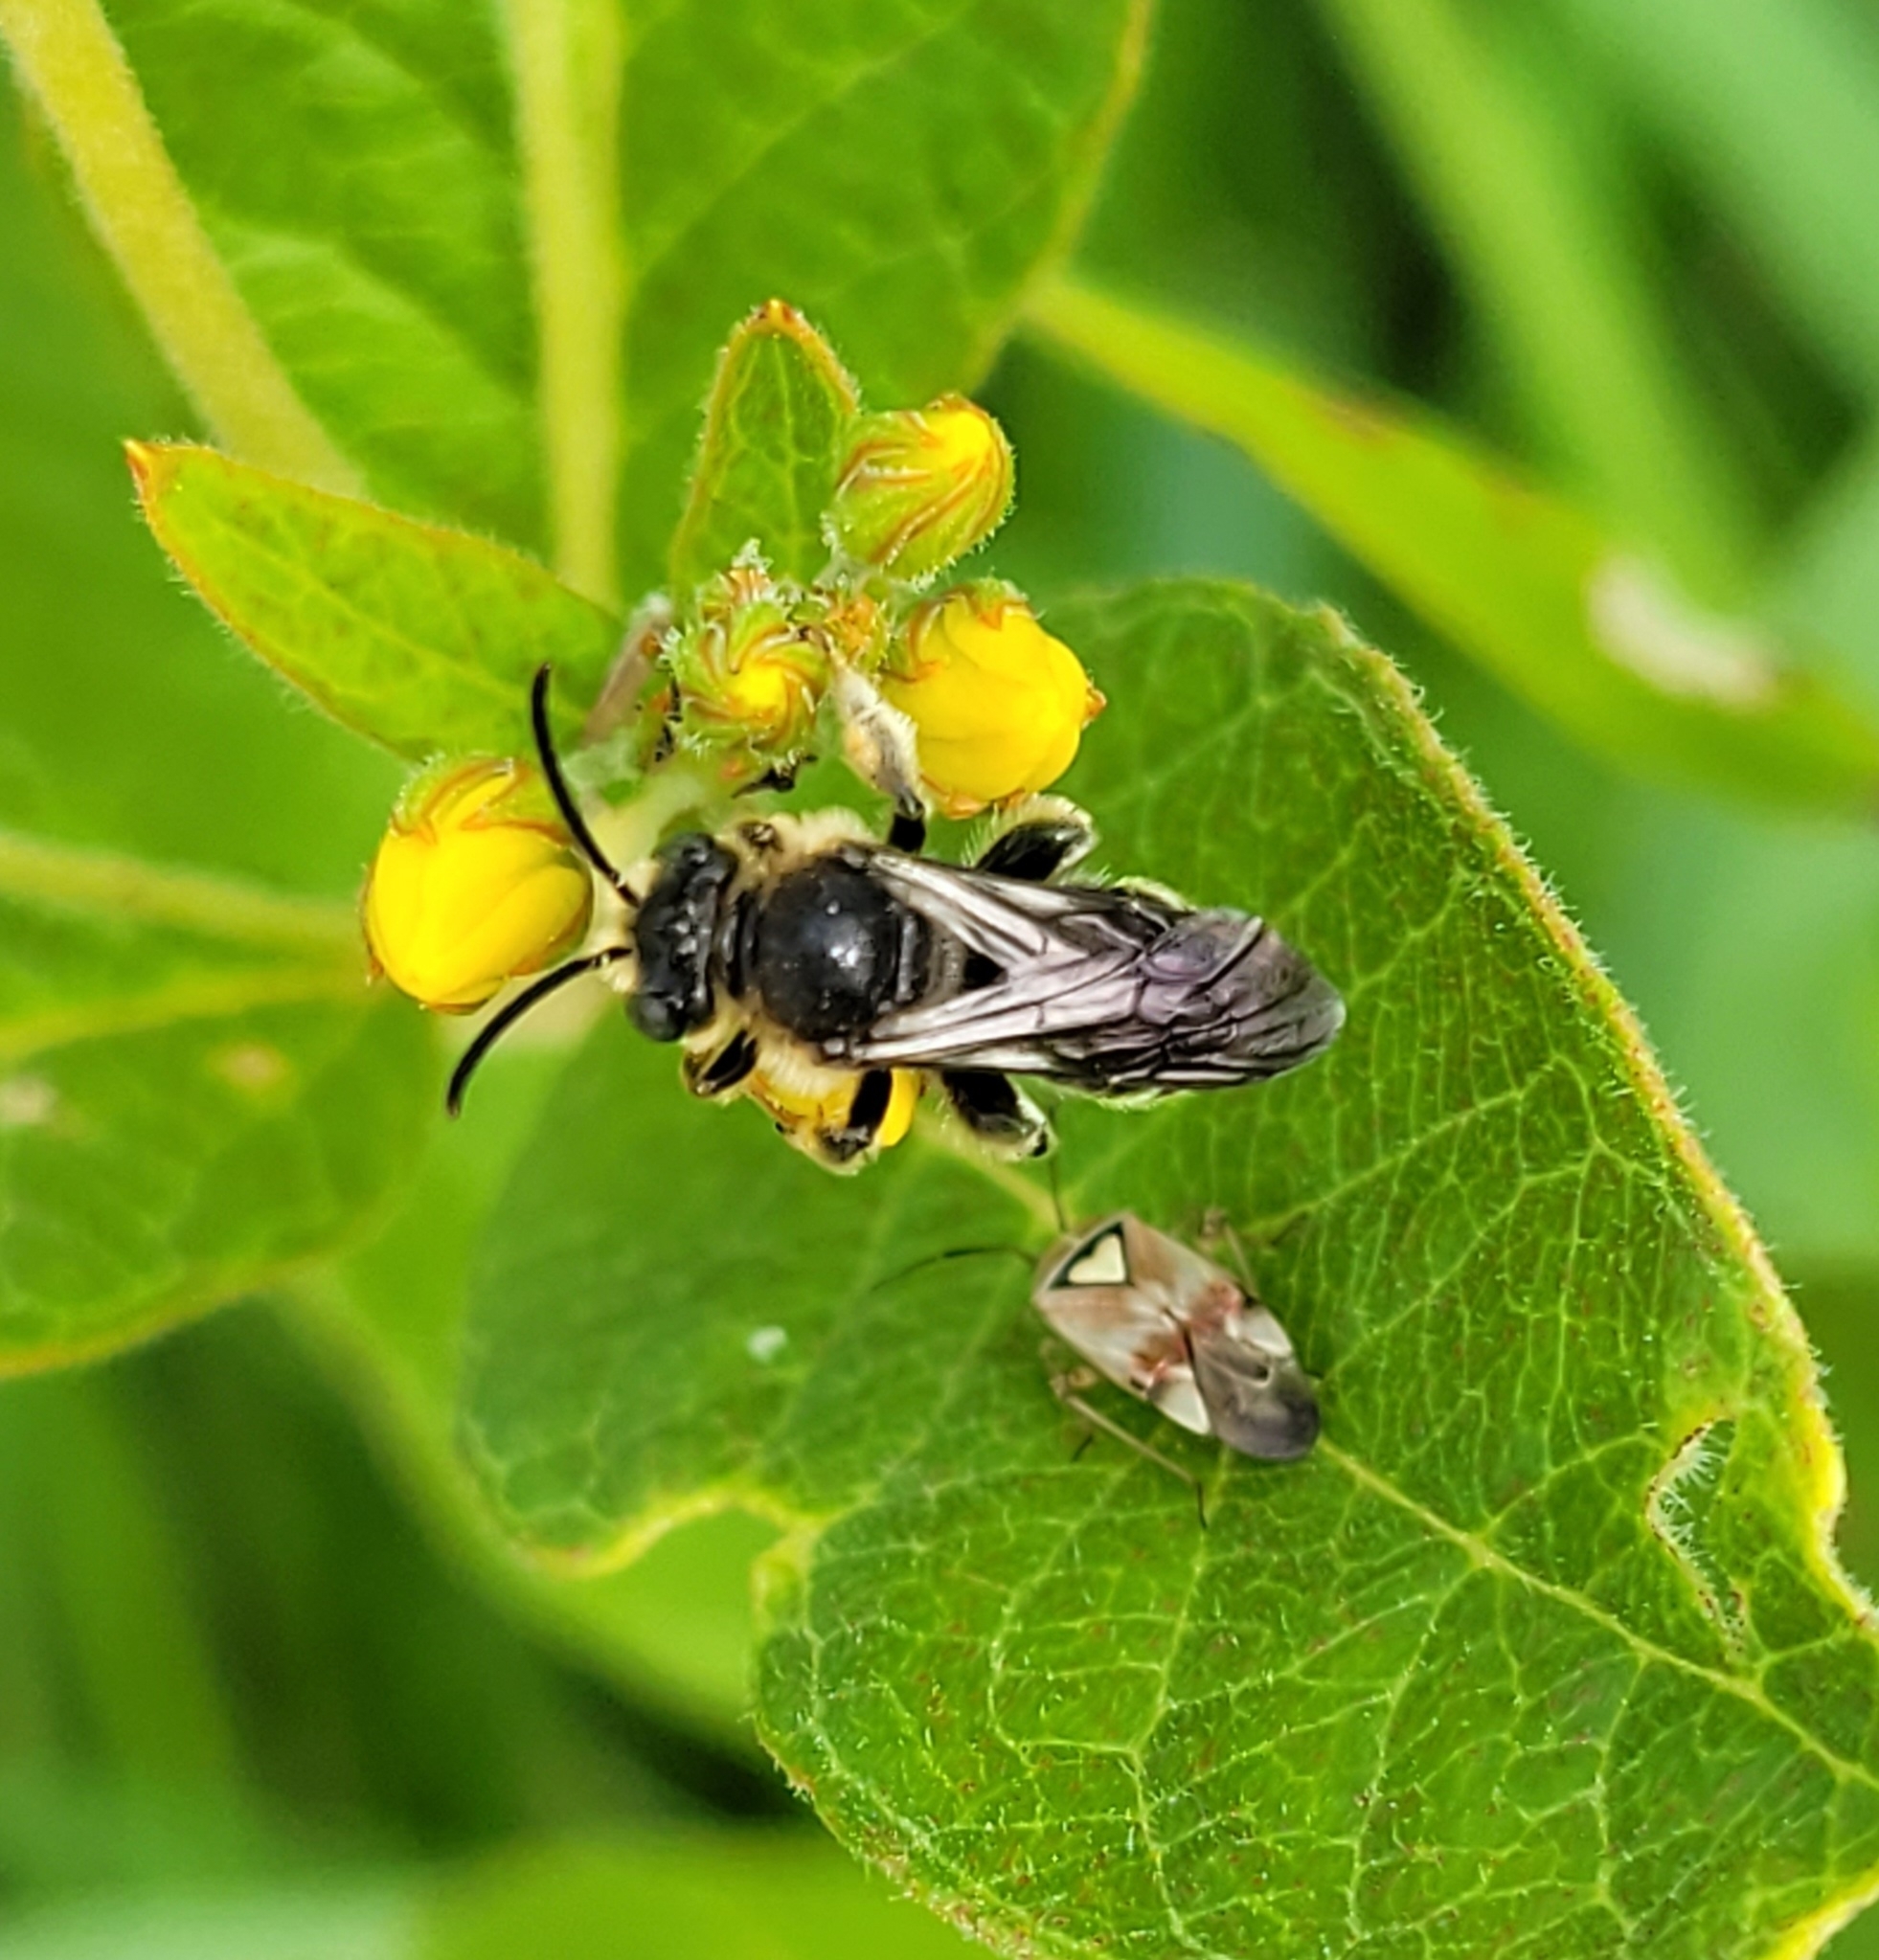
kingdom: Animalia
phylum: Arthropoda
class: Insecta
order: Hymenoptera
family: Melittidae
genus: Macropis
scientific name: Macropis europaea
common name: Yellow loosestrife bee
